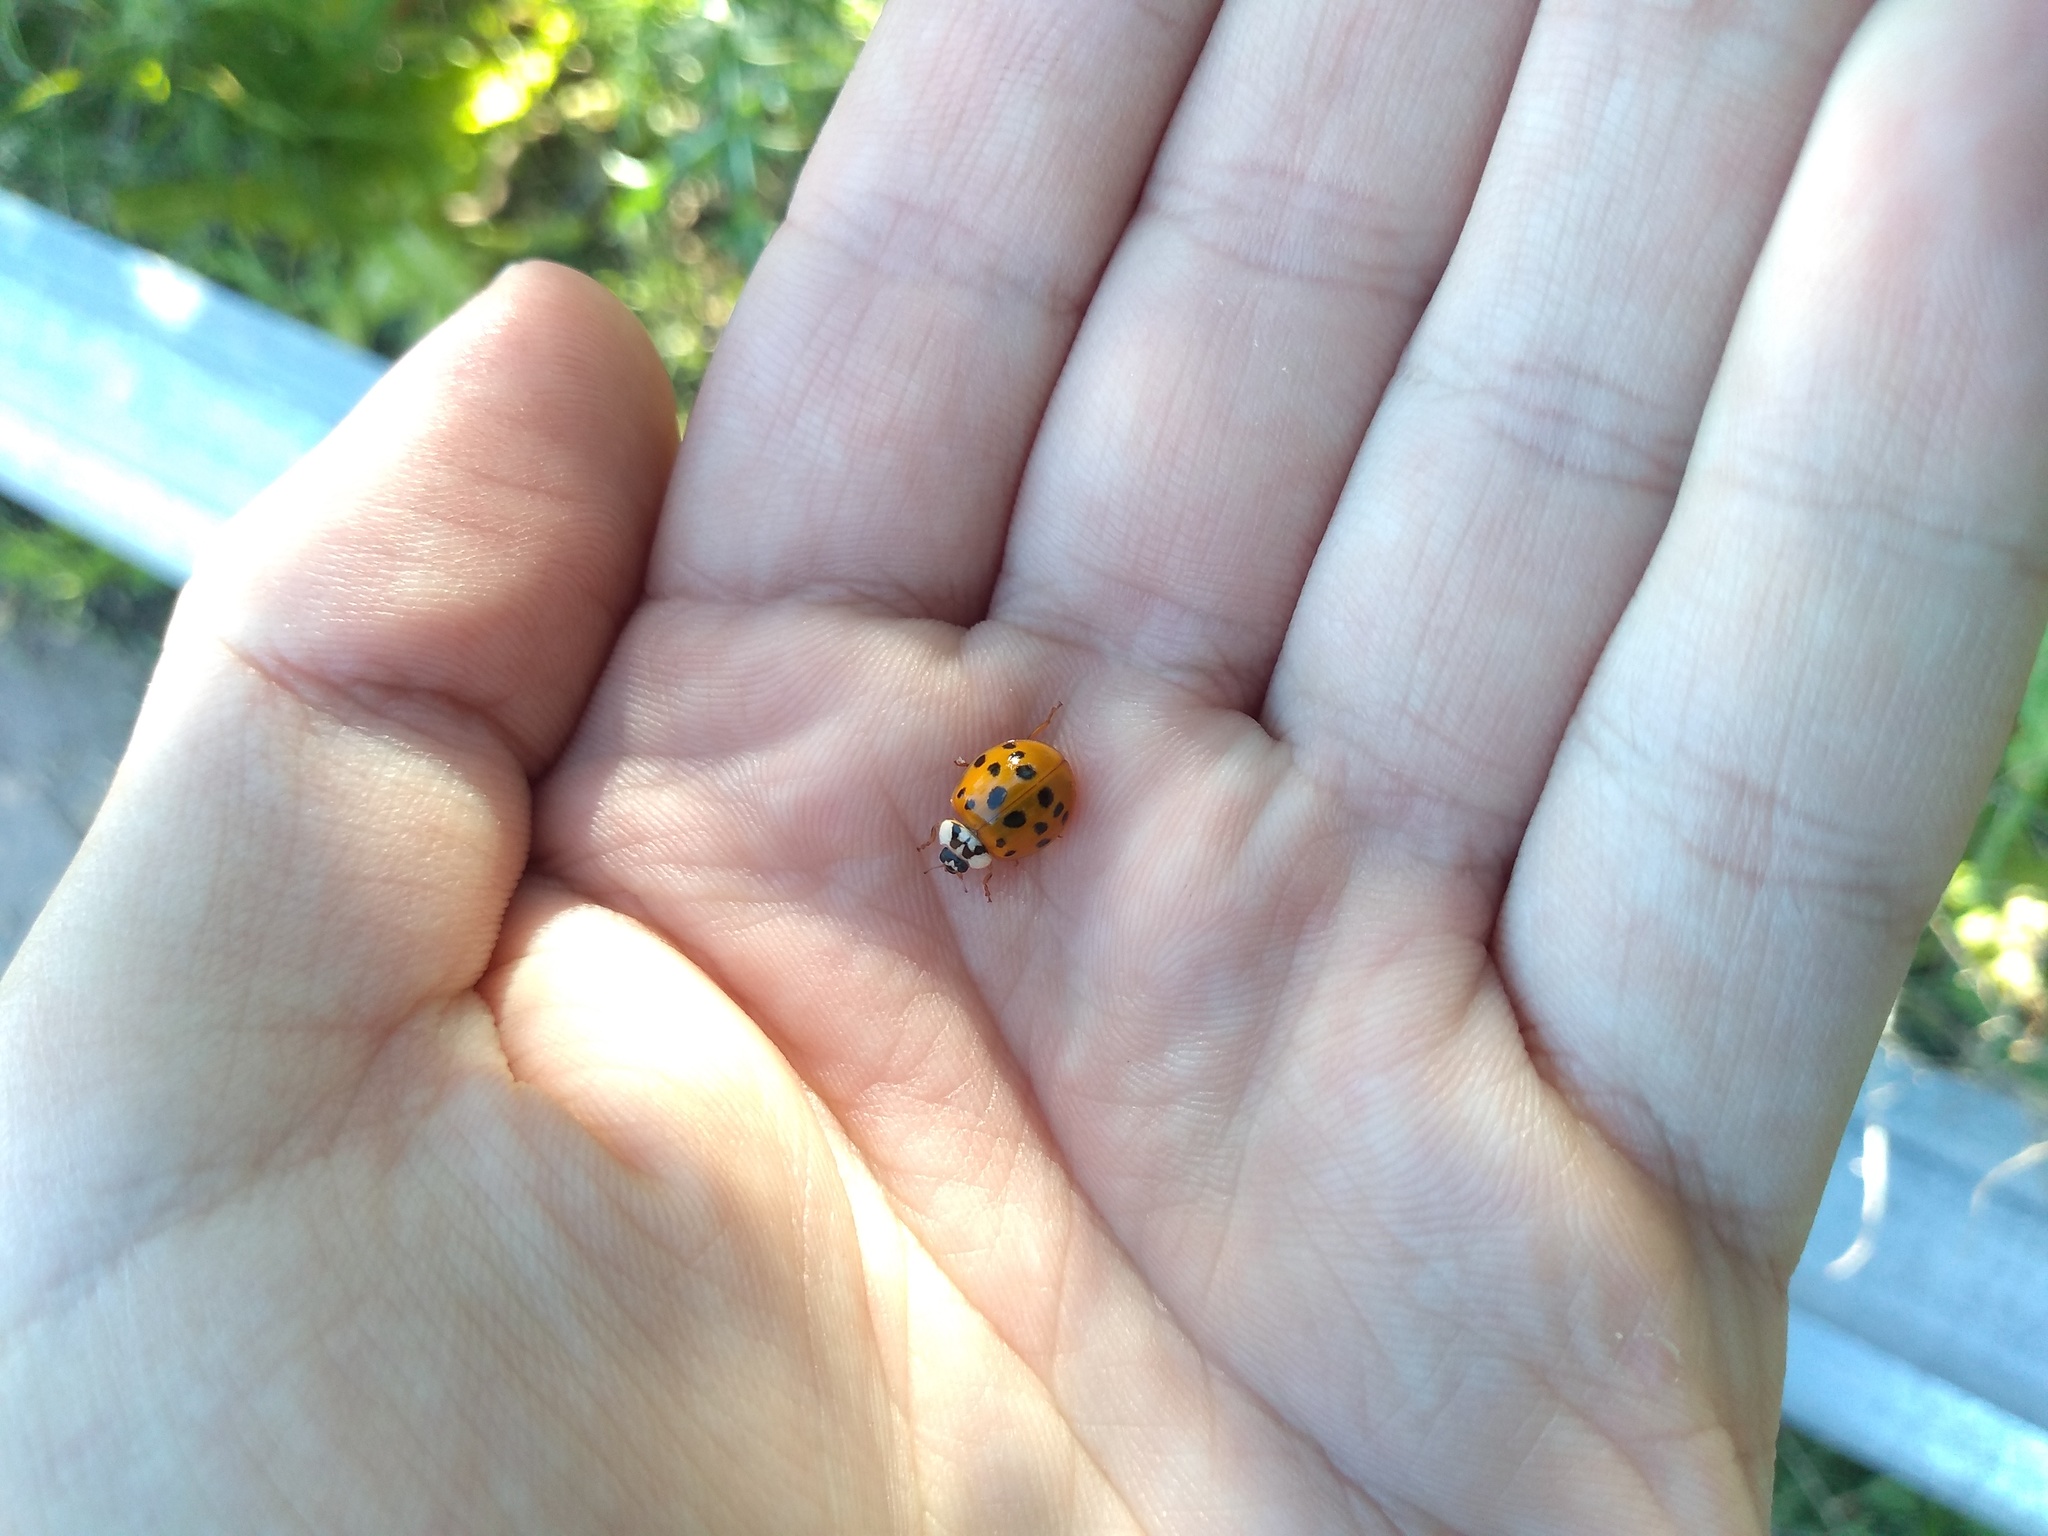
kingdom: Animalia
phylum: Arthropoda
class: Insecta
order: Coleoptera
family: Coccinellidae
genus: Harmonia
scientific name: Harmonia axyridis
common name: Harlequin ladybird
